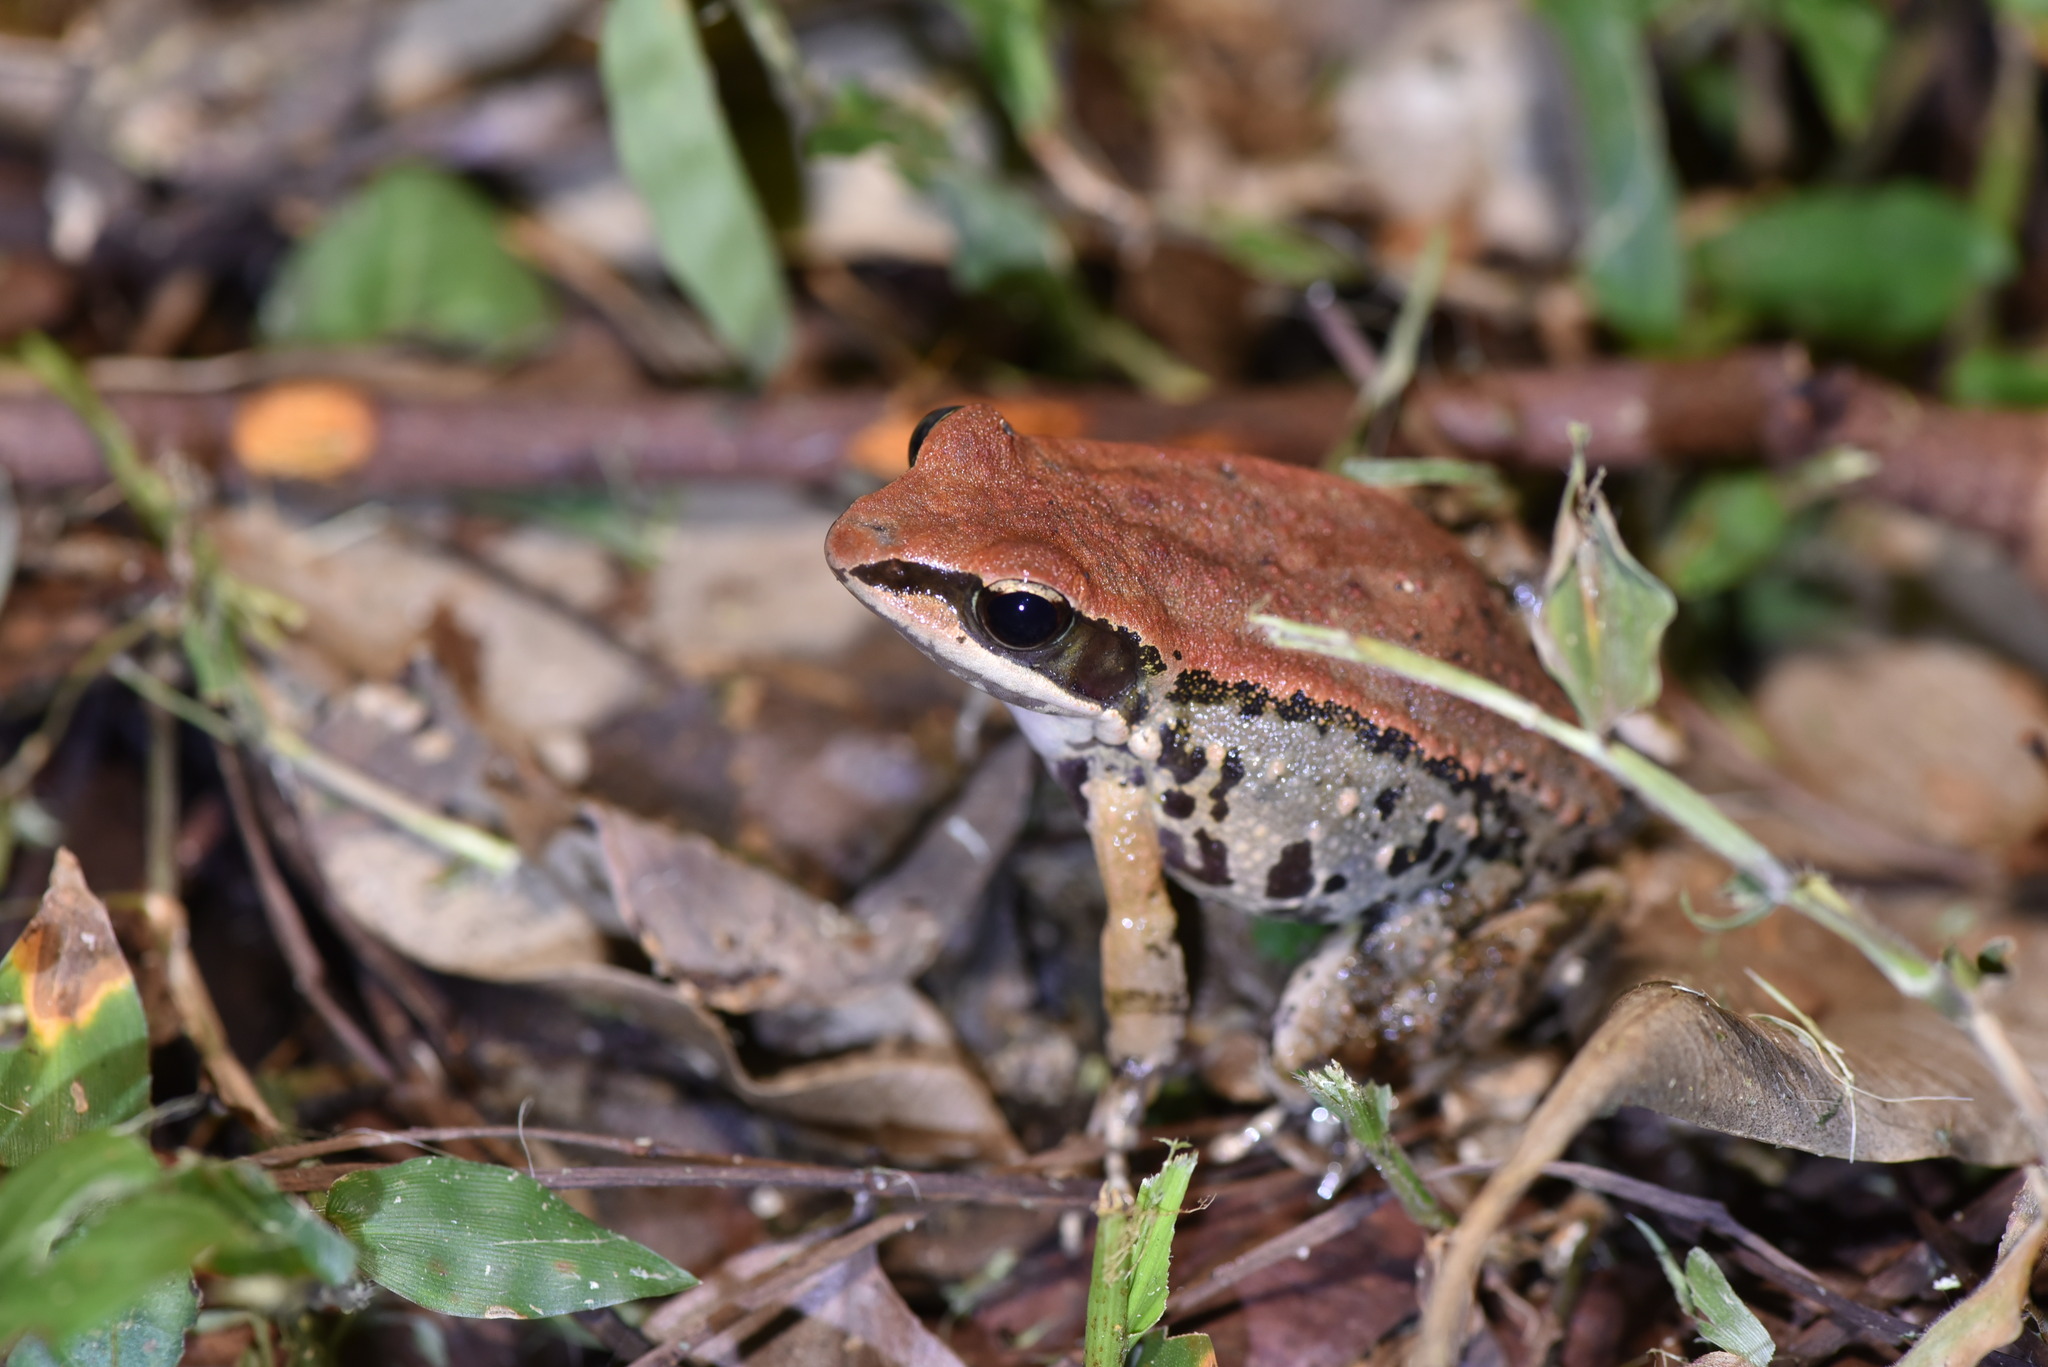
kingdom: Animalia
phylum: Chordata
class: Amphibia
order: Anura
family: Ranidae
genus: Hylarana
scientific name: Hylarana latouchii
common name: Broad-folded frog
